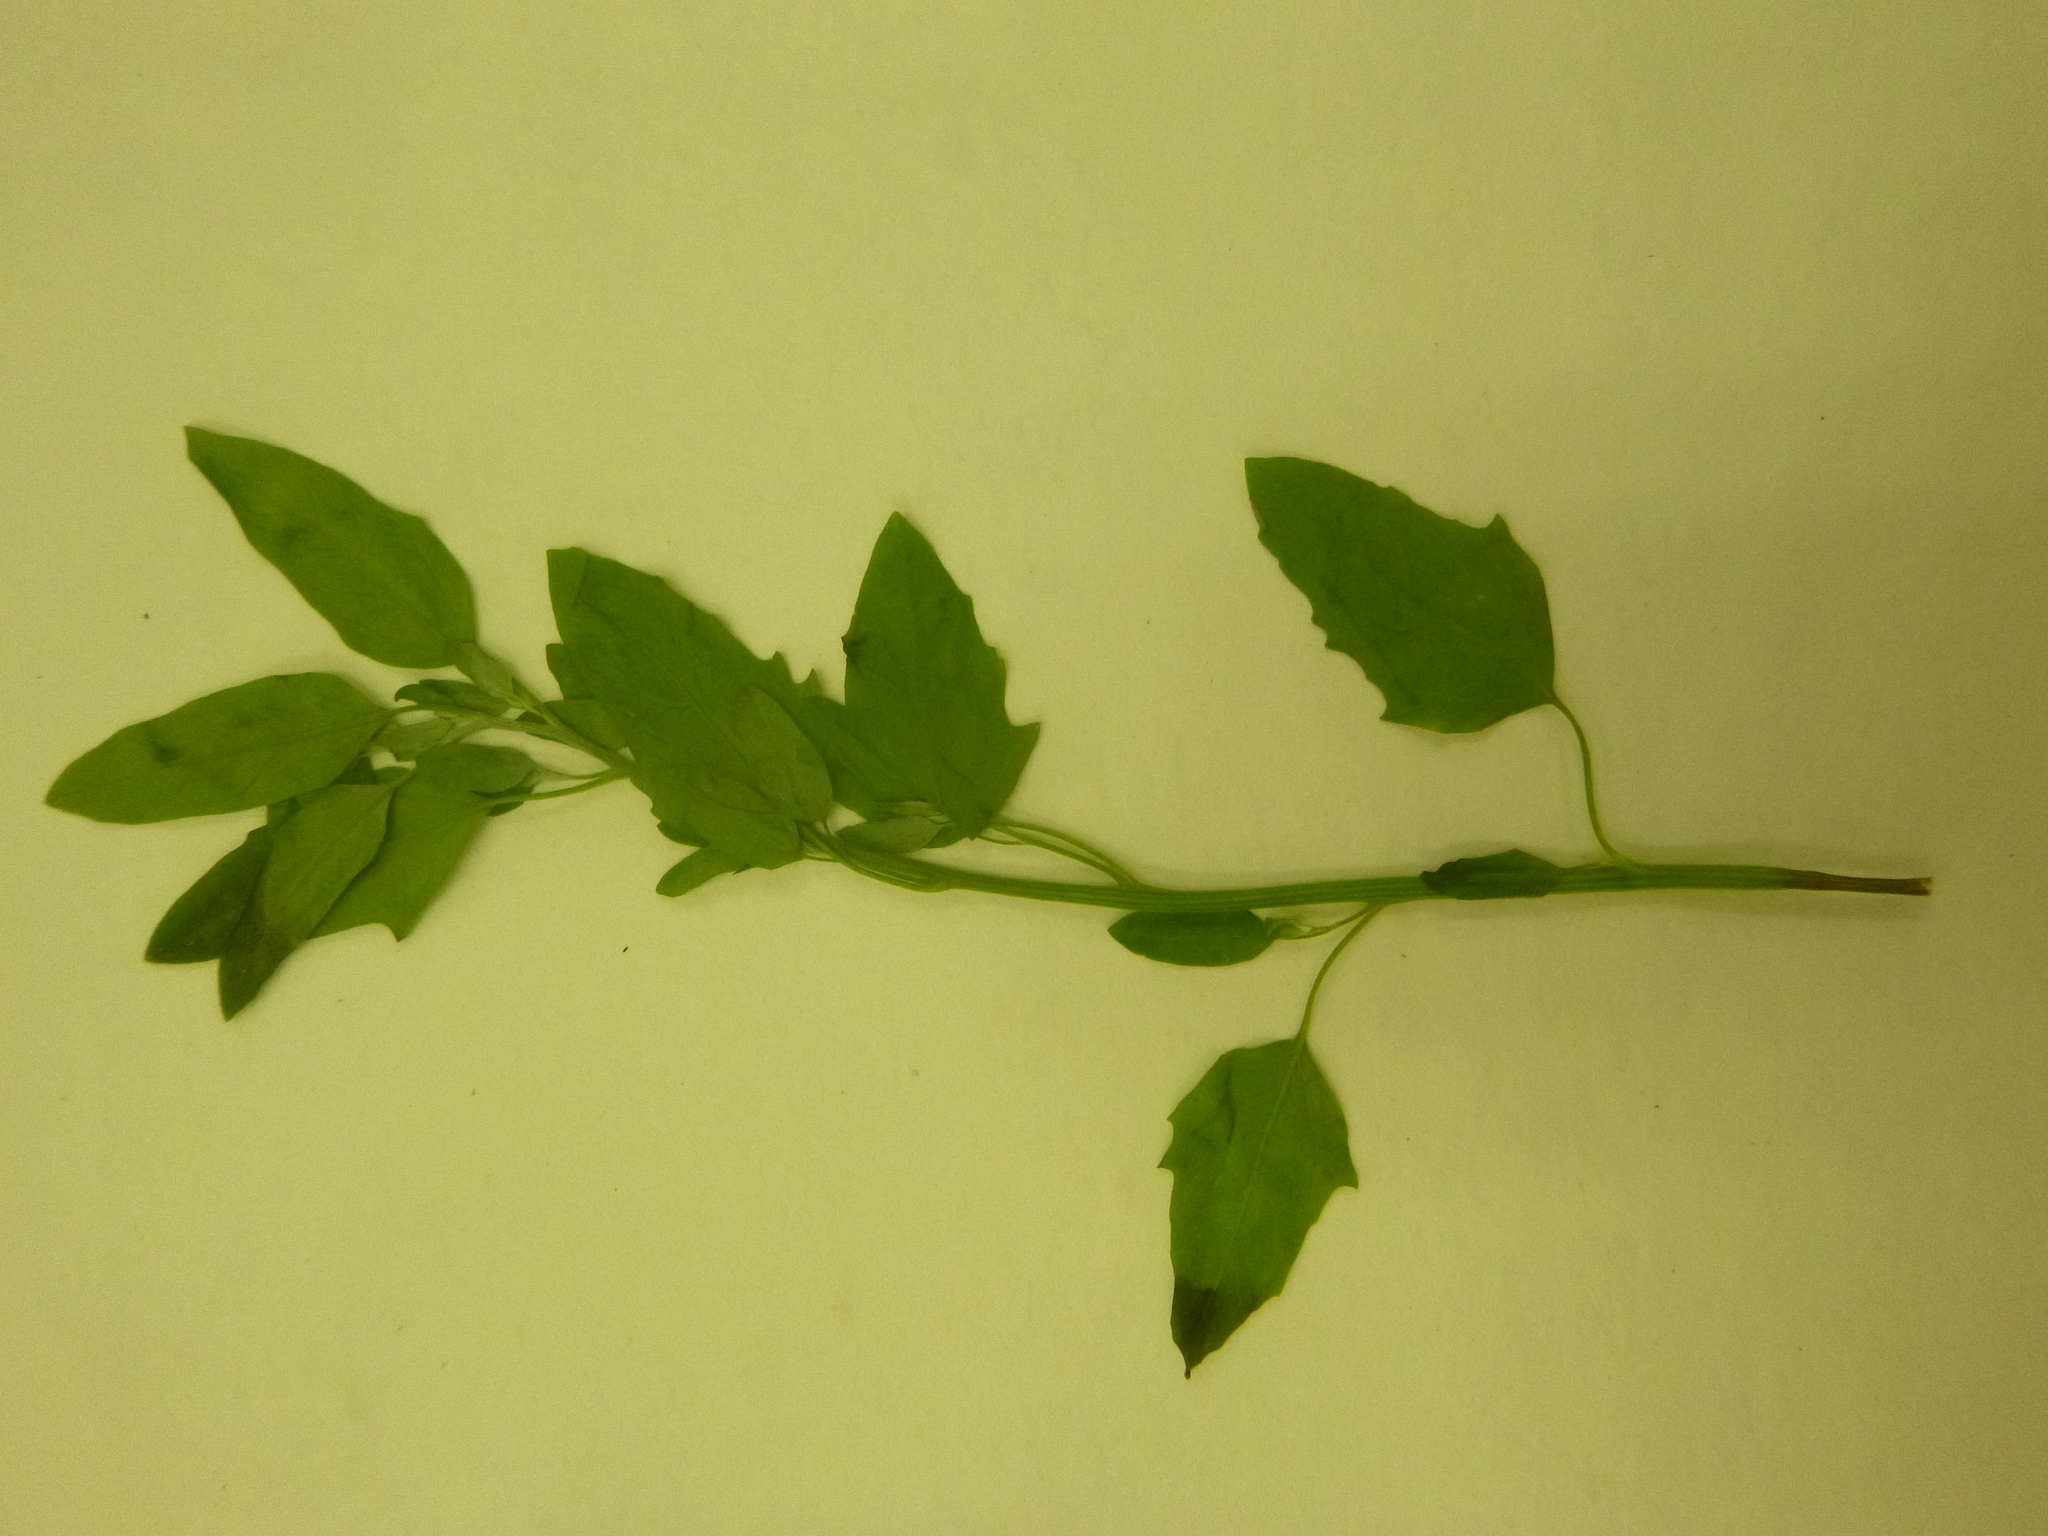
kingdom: Plantae
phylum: Tracheophyta
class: Magnoliopsida
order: Caryophyllales
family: Amaranthaceae
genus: Chenopodium
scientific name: Chenopodium album
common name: Fat-hen
